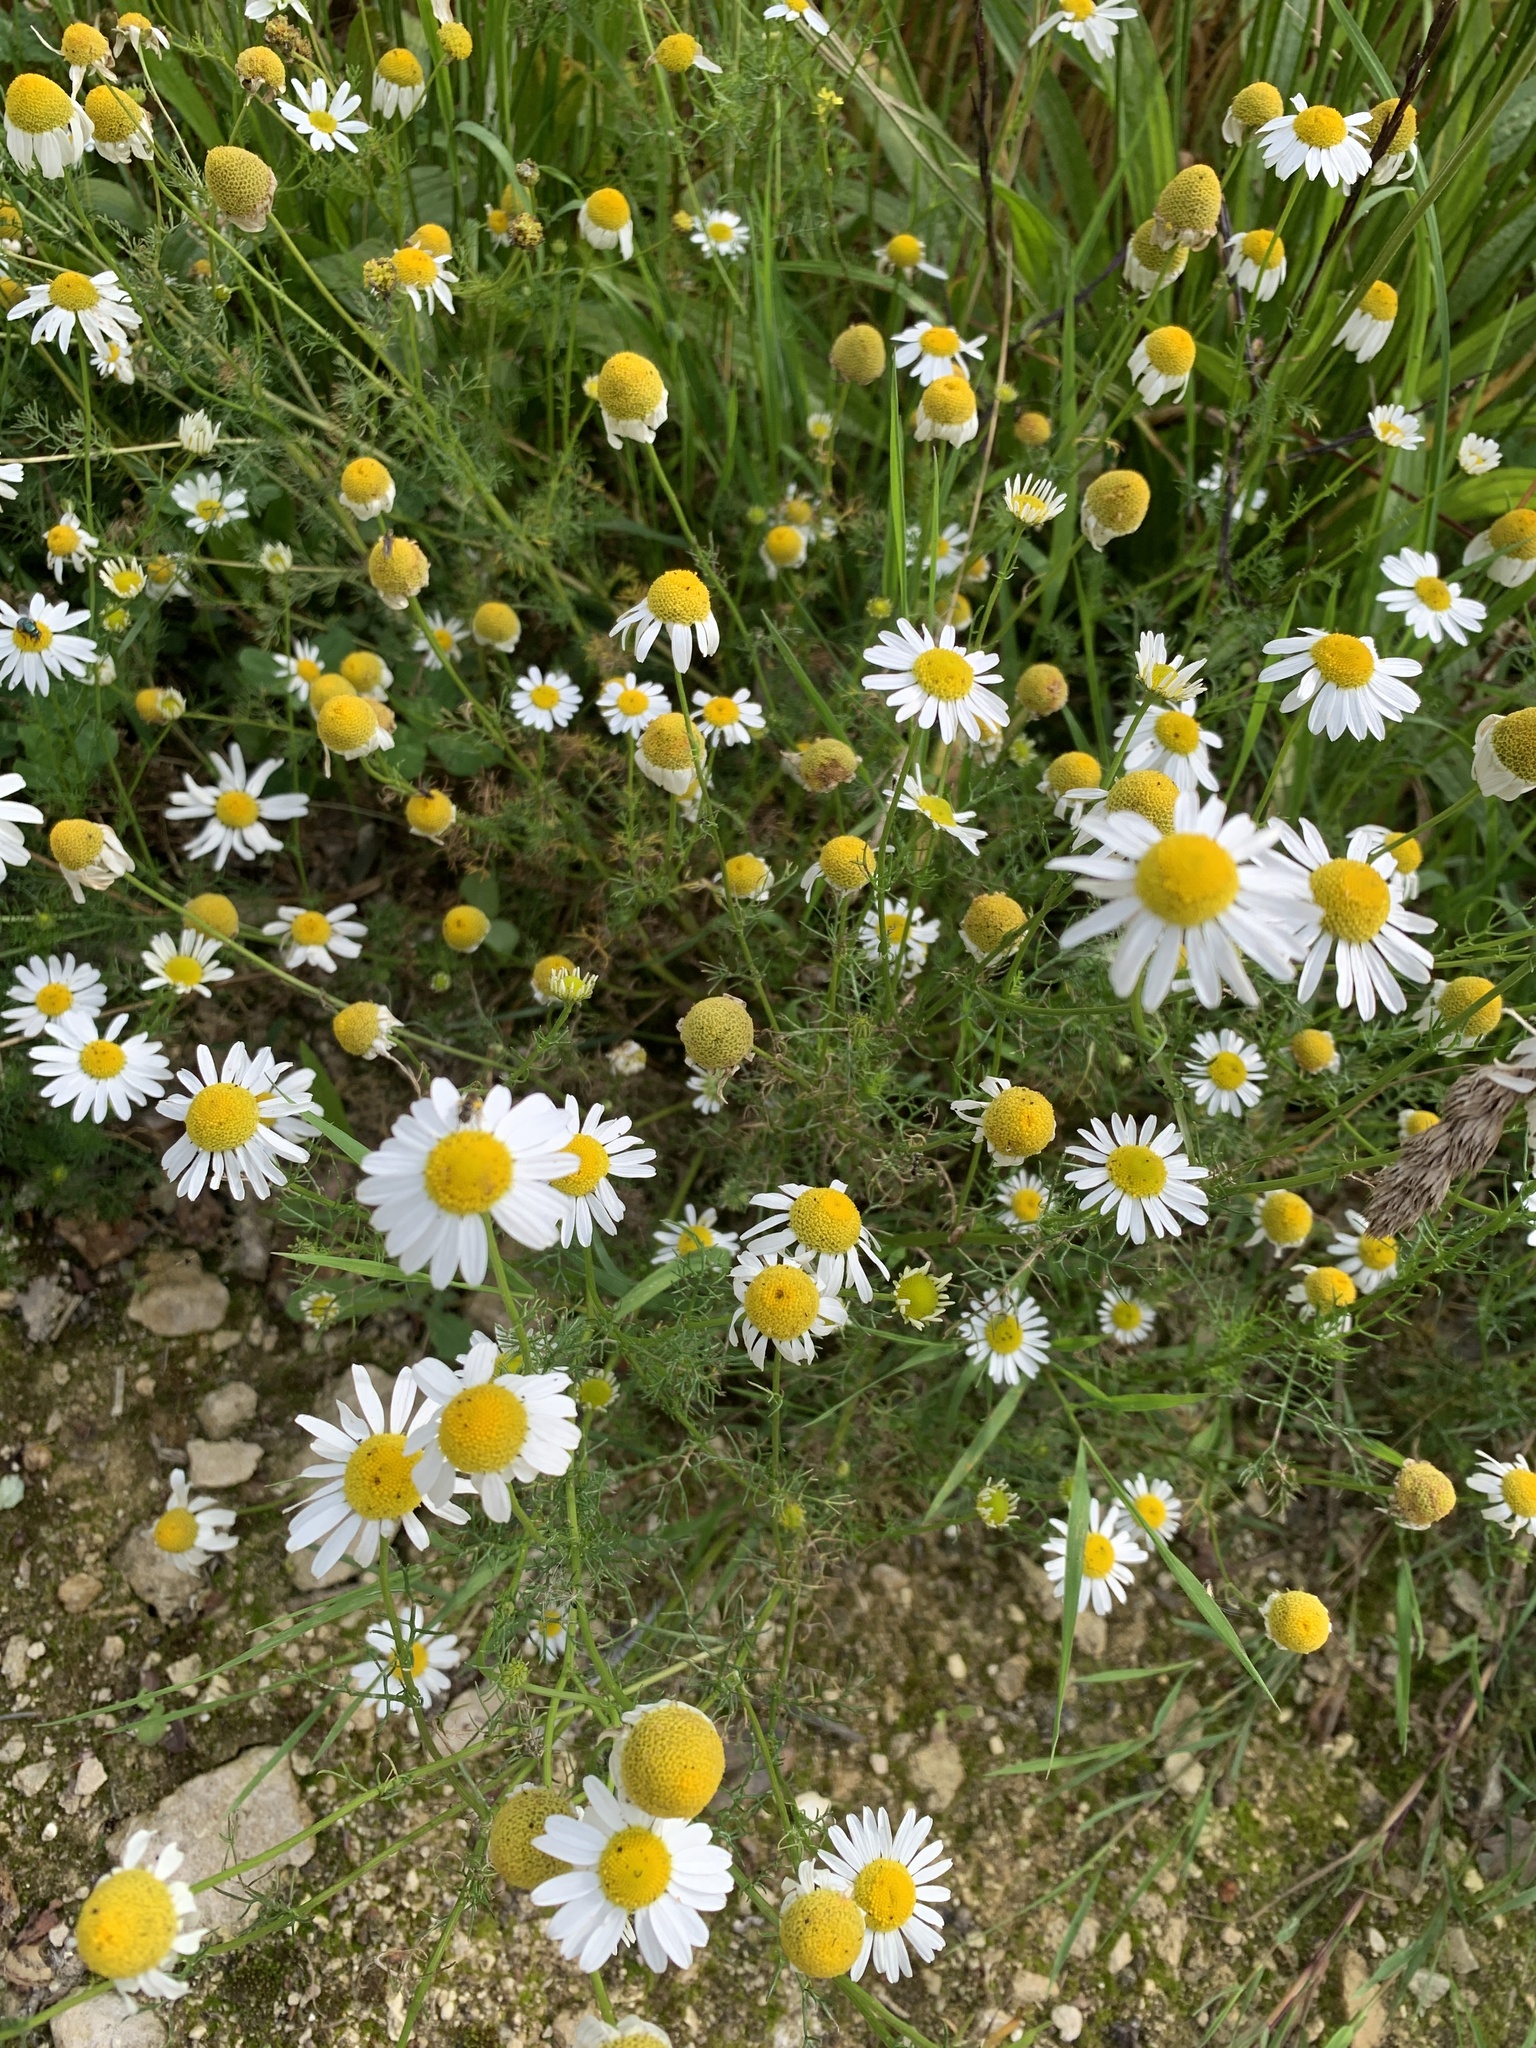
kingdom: Plantae
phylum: Tracheophyta
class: Magnoliopsida
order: Asterales
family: Asteraceae
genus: Tripleurospermum
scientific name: Tripleurospermum inodorum
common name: Scentless mayweed
